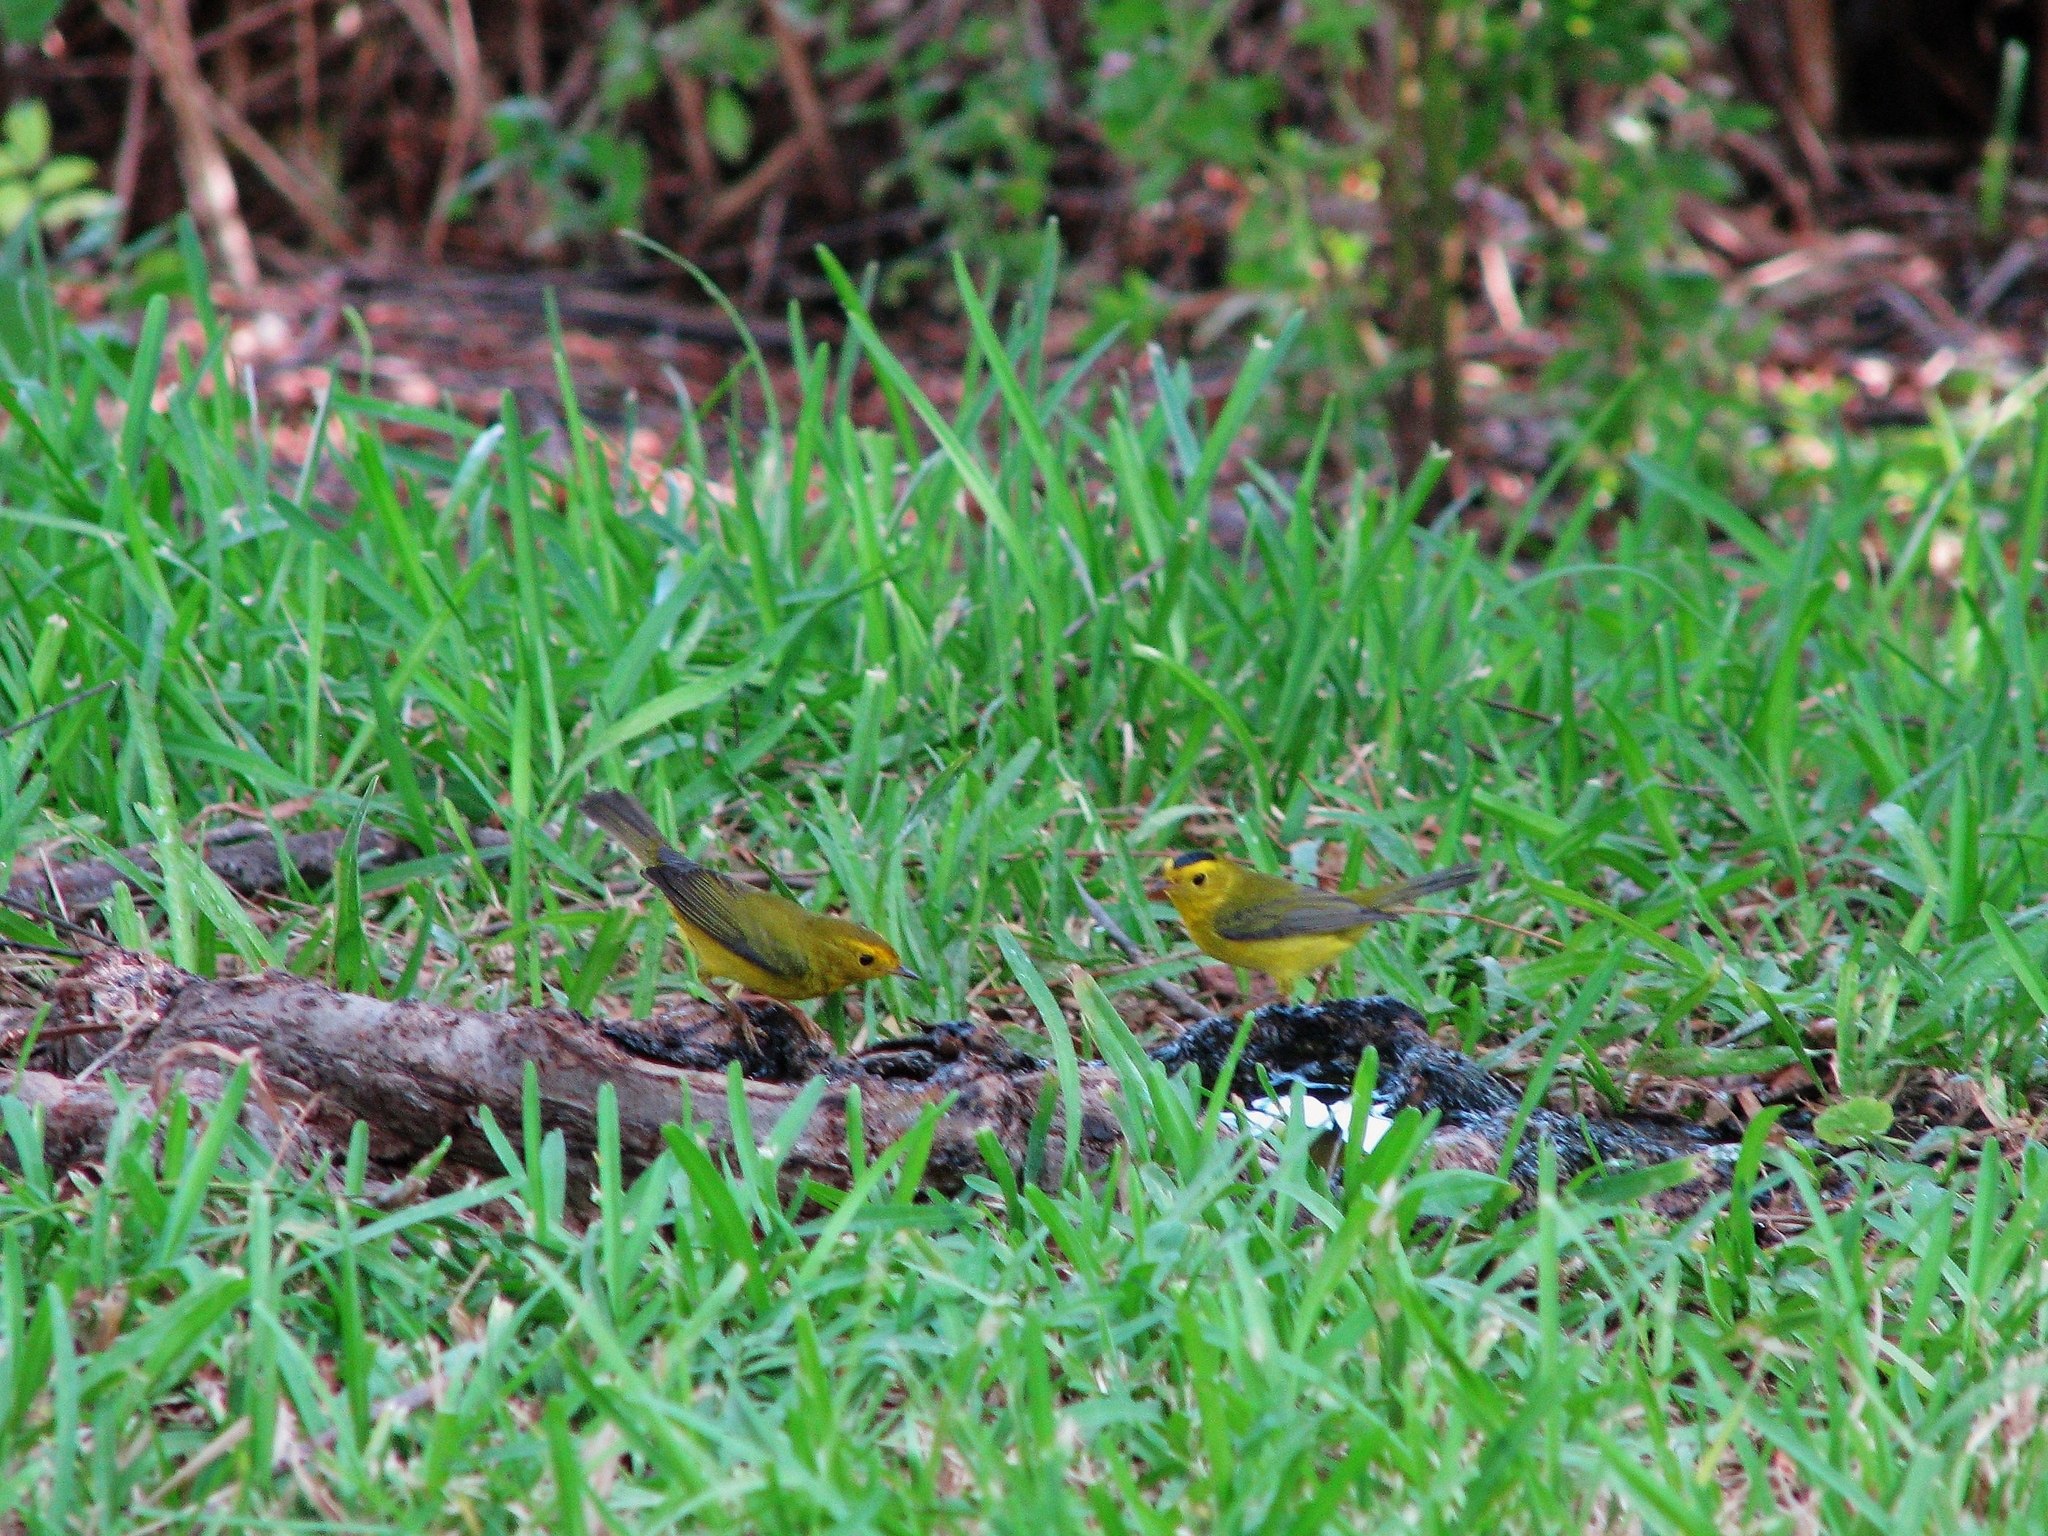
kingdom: Animalia
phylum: Chordata
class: Aves
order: Passeriformes
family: Parulidae
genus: Cardellina
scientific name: Cardellina pusilla
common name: Wilson's warbler
